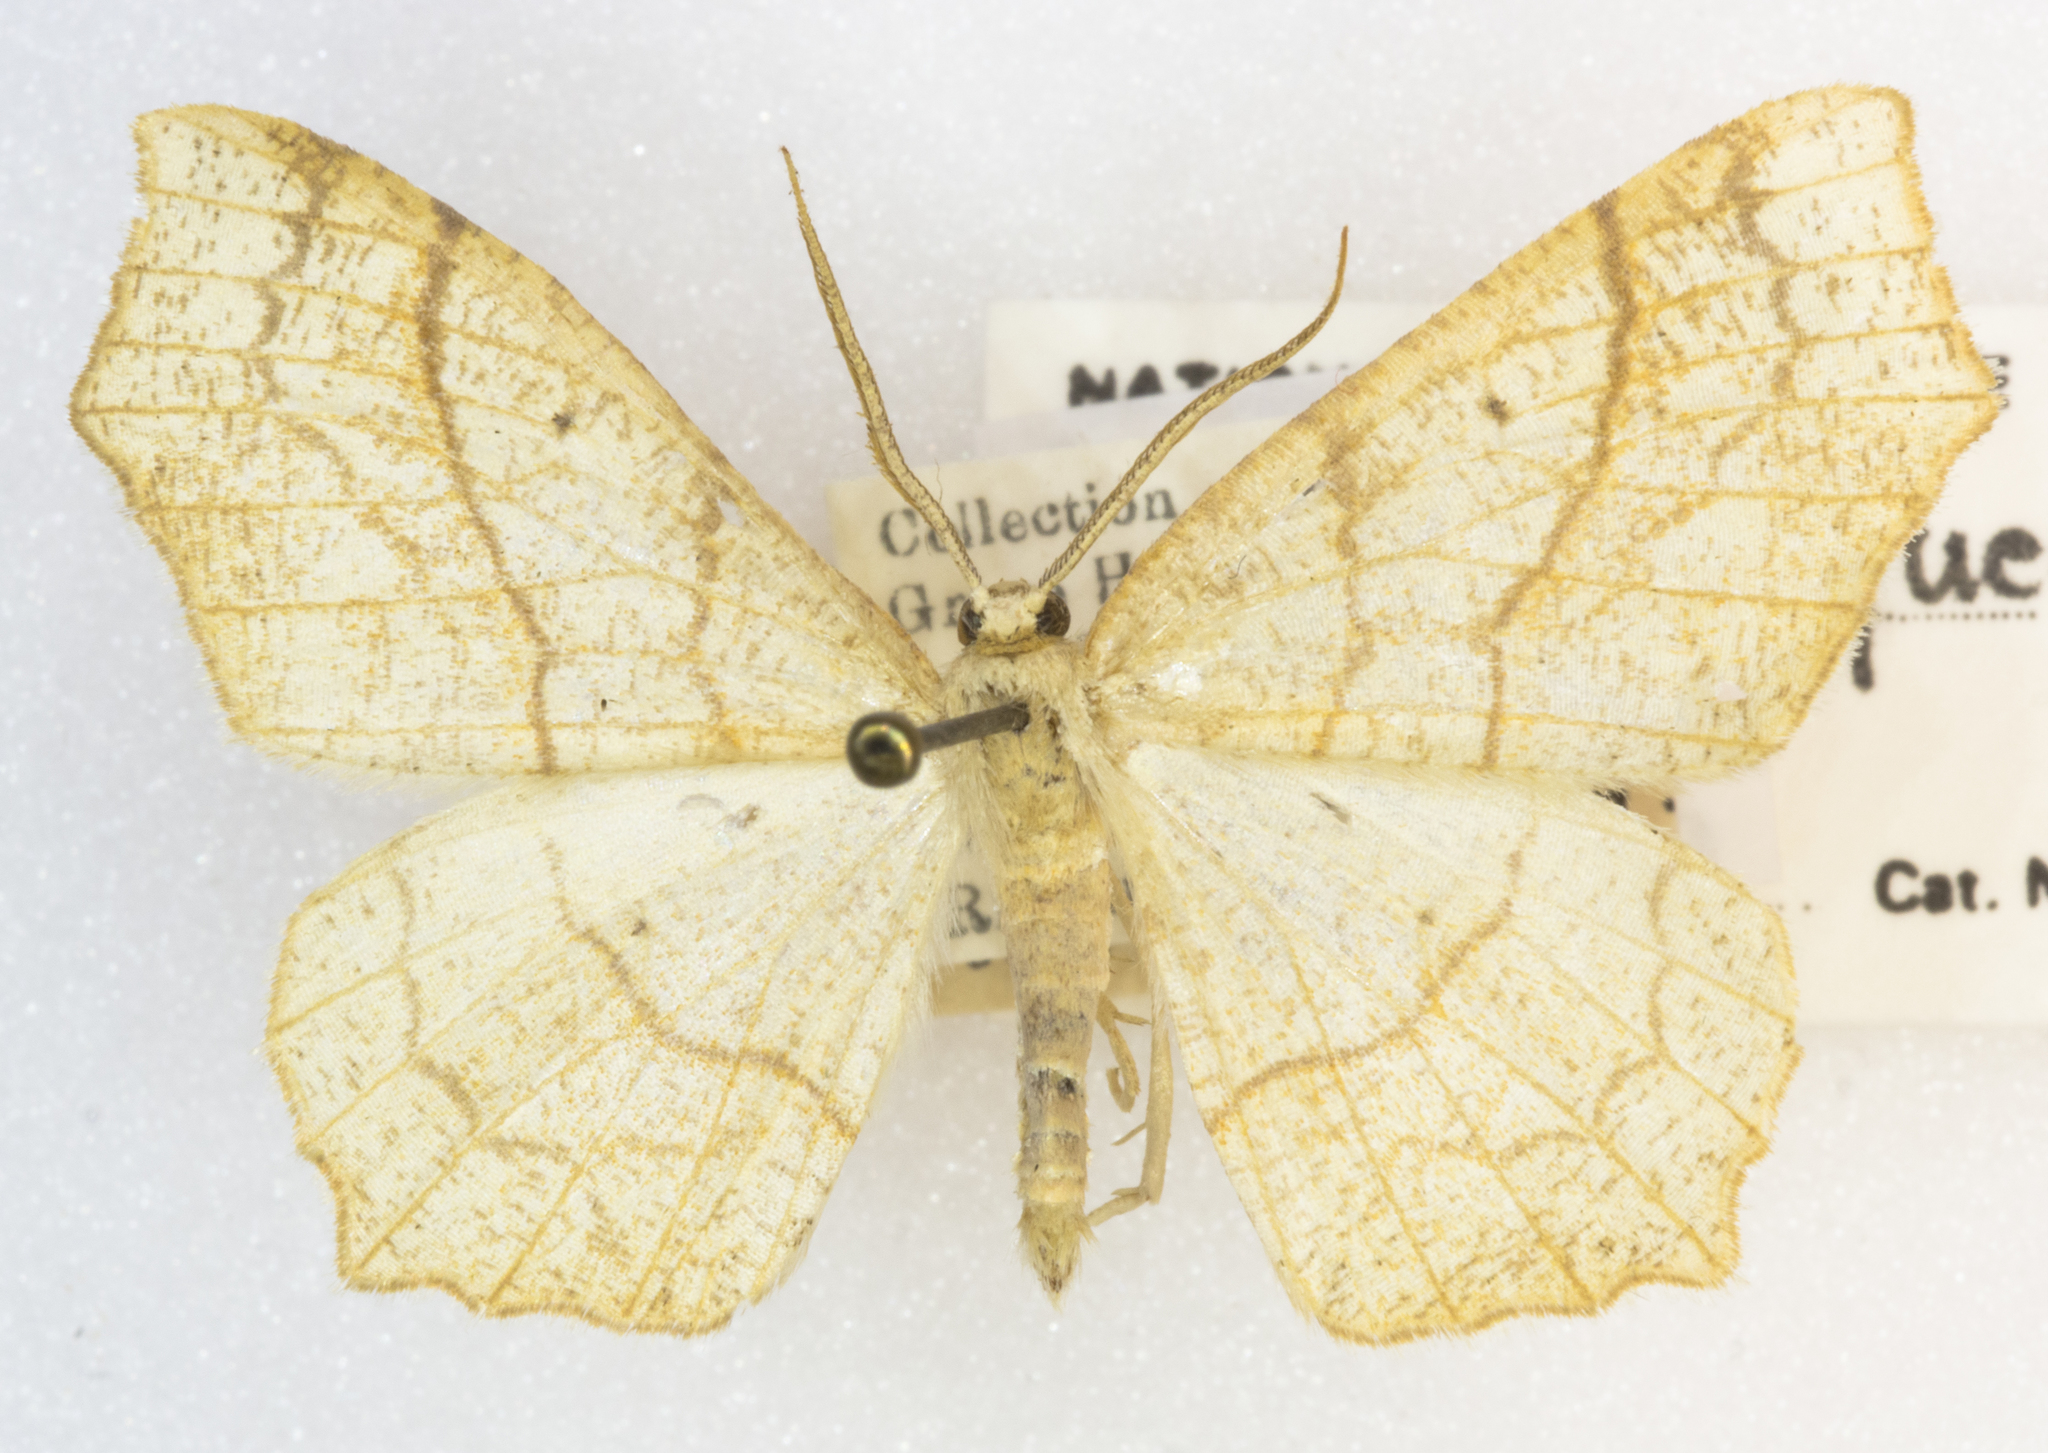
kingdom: Animalia
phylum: Arthropoda
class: Insecta
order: Lepidoptera
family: Geometridae
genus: Besma
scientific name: Besma quercivoraria
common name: Oak besma
